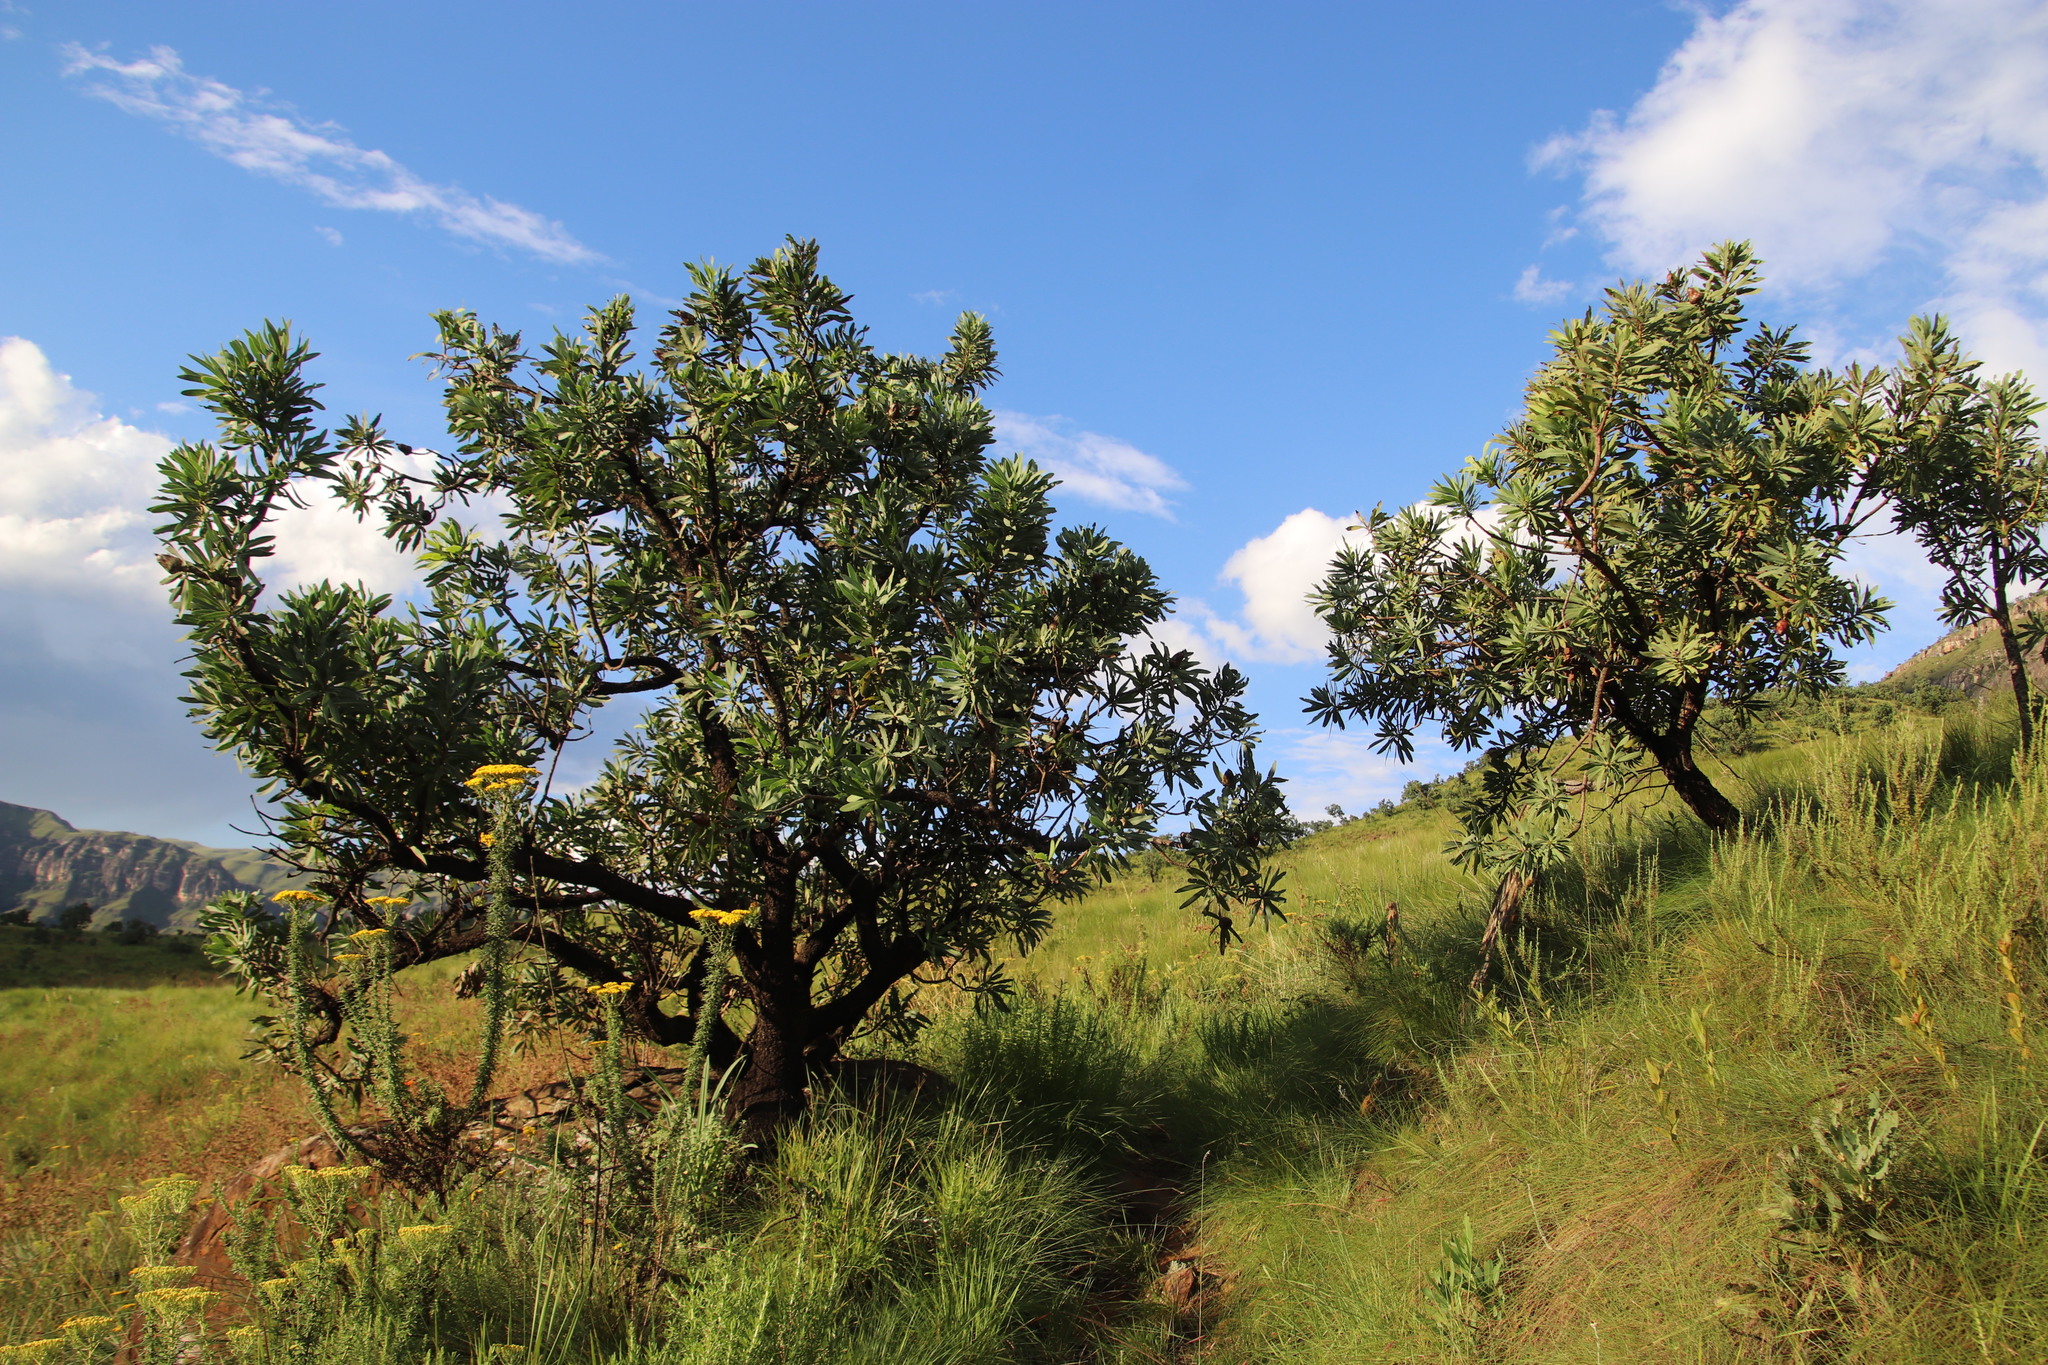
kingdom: Plantae
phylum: Tracheophyta
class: Magnoliopsida
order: Proteales
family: Proteaceae
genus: Protea
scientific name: Protea caffra
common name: Common sugarbush
